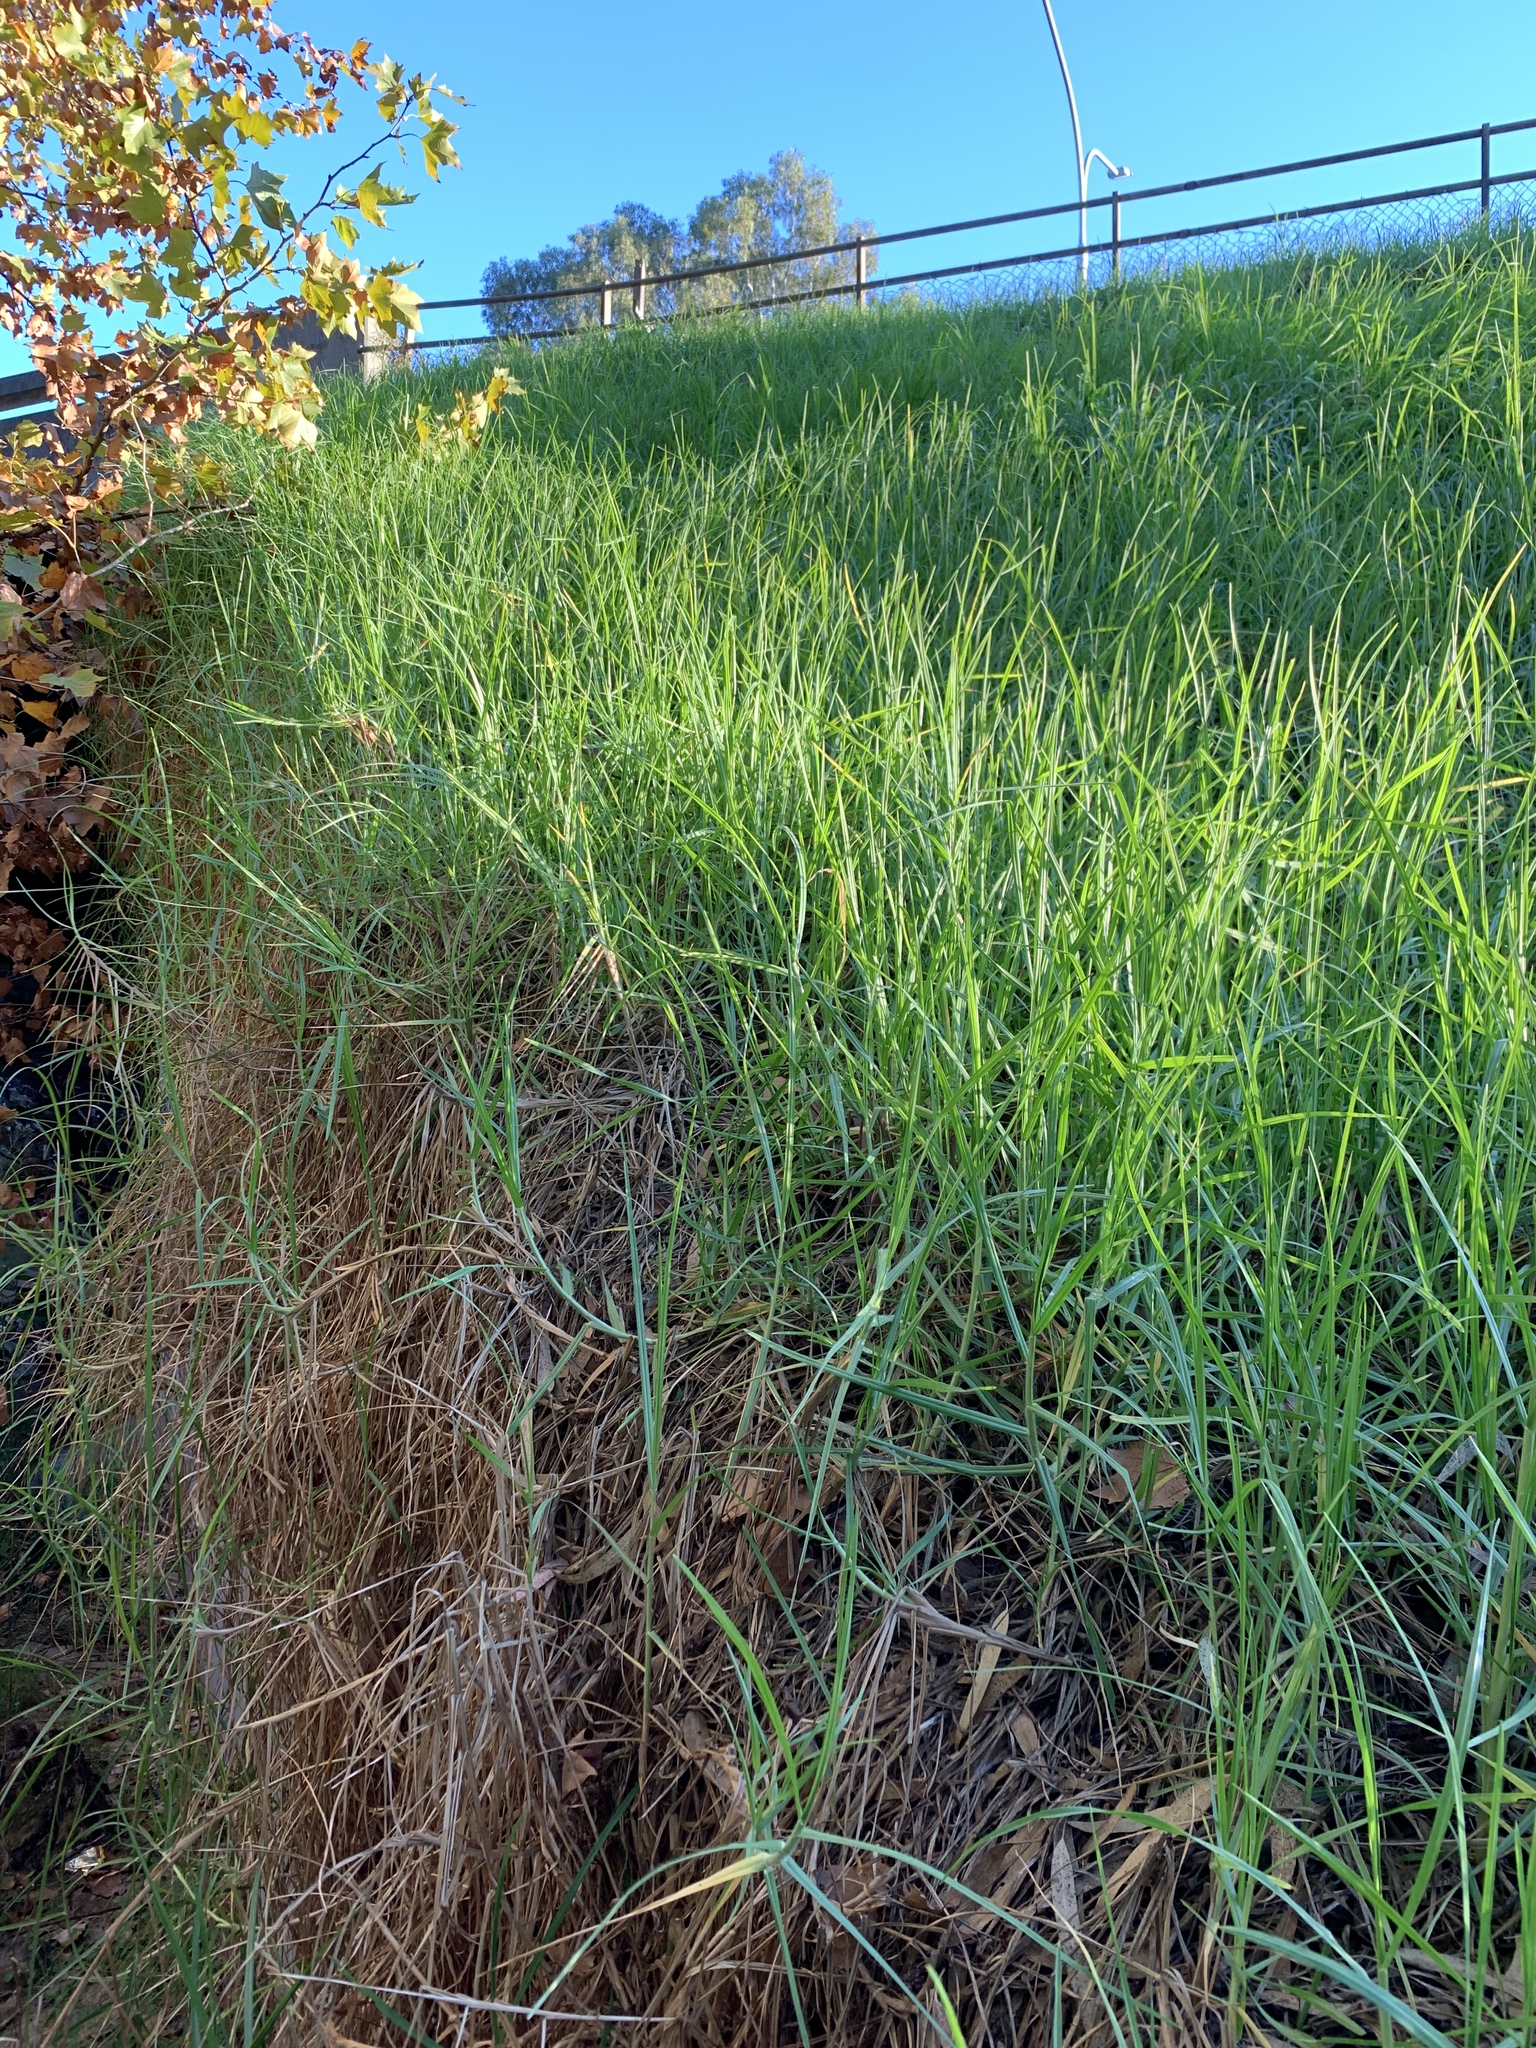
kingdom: Plantae
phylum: Tracheophyta
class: Liliopsida
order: Poales
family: Poaceae
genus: Cenchrus
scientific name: Cenchrus clandestinus
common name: Kikuyugrass
